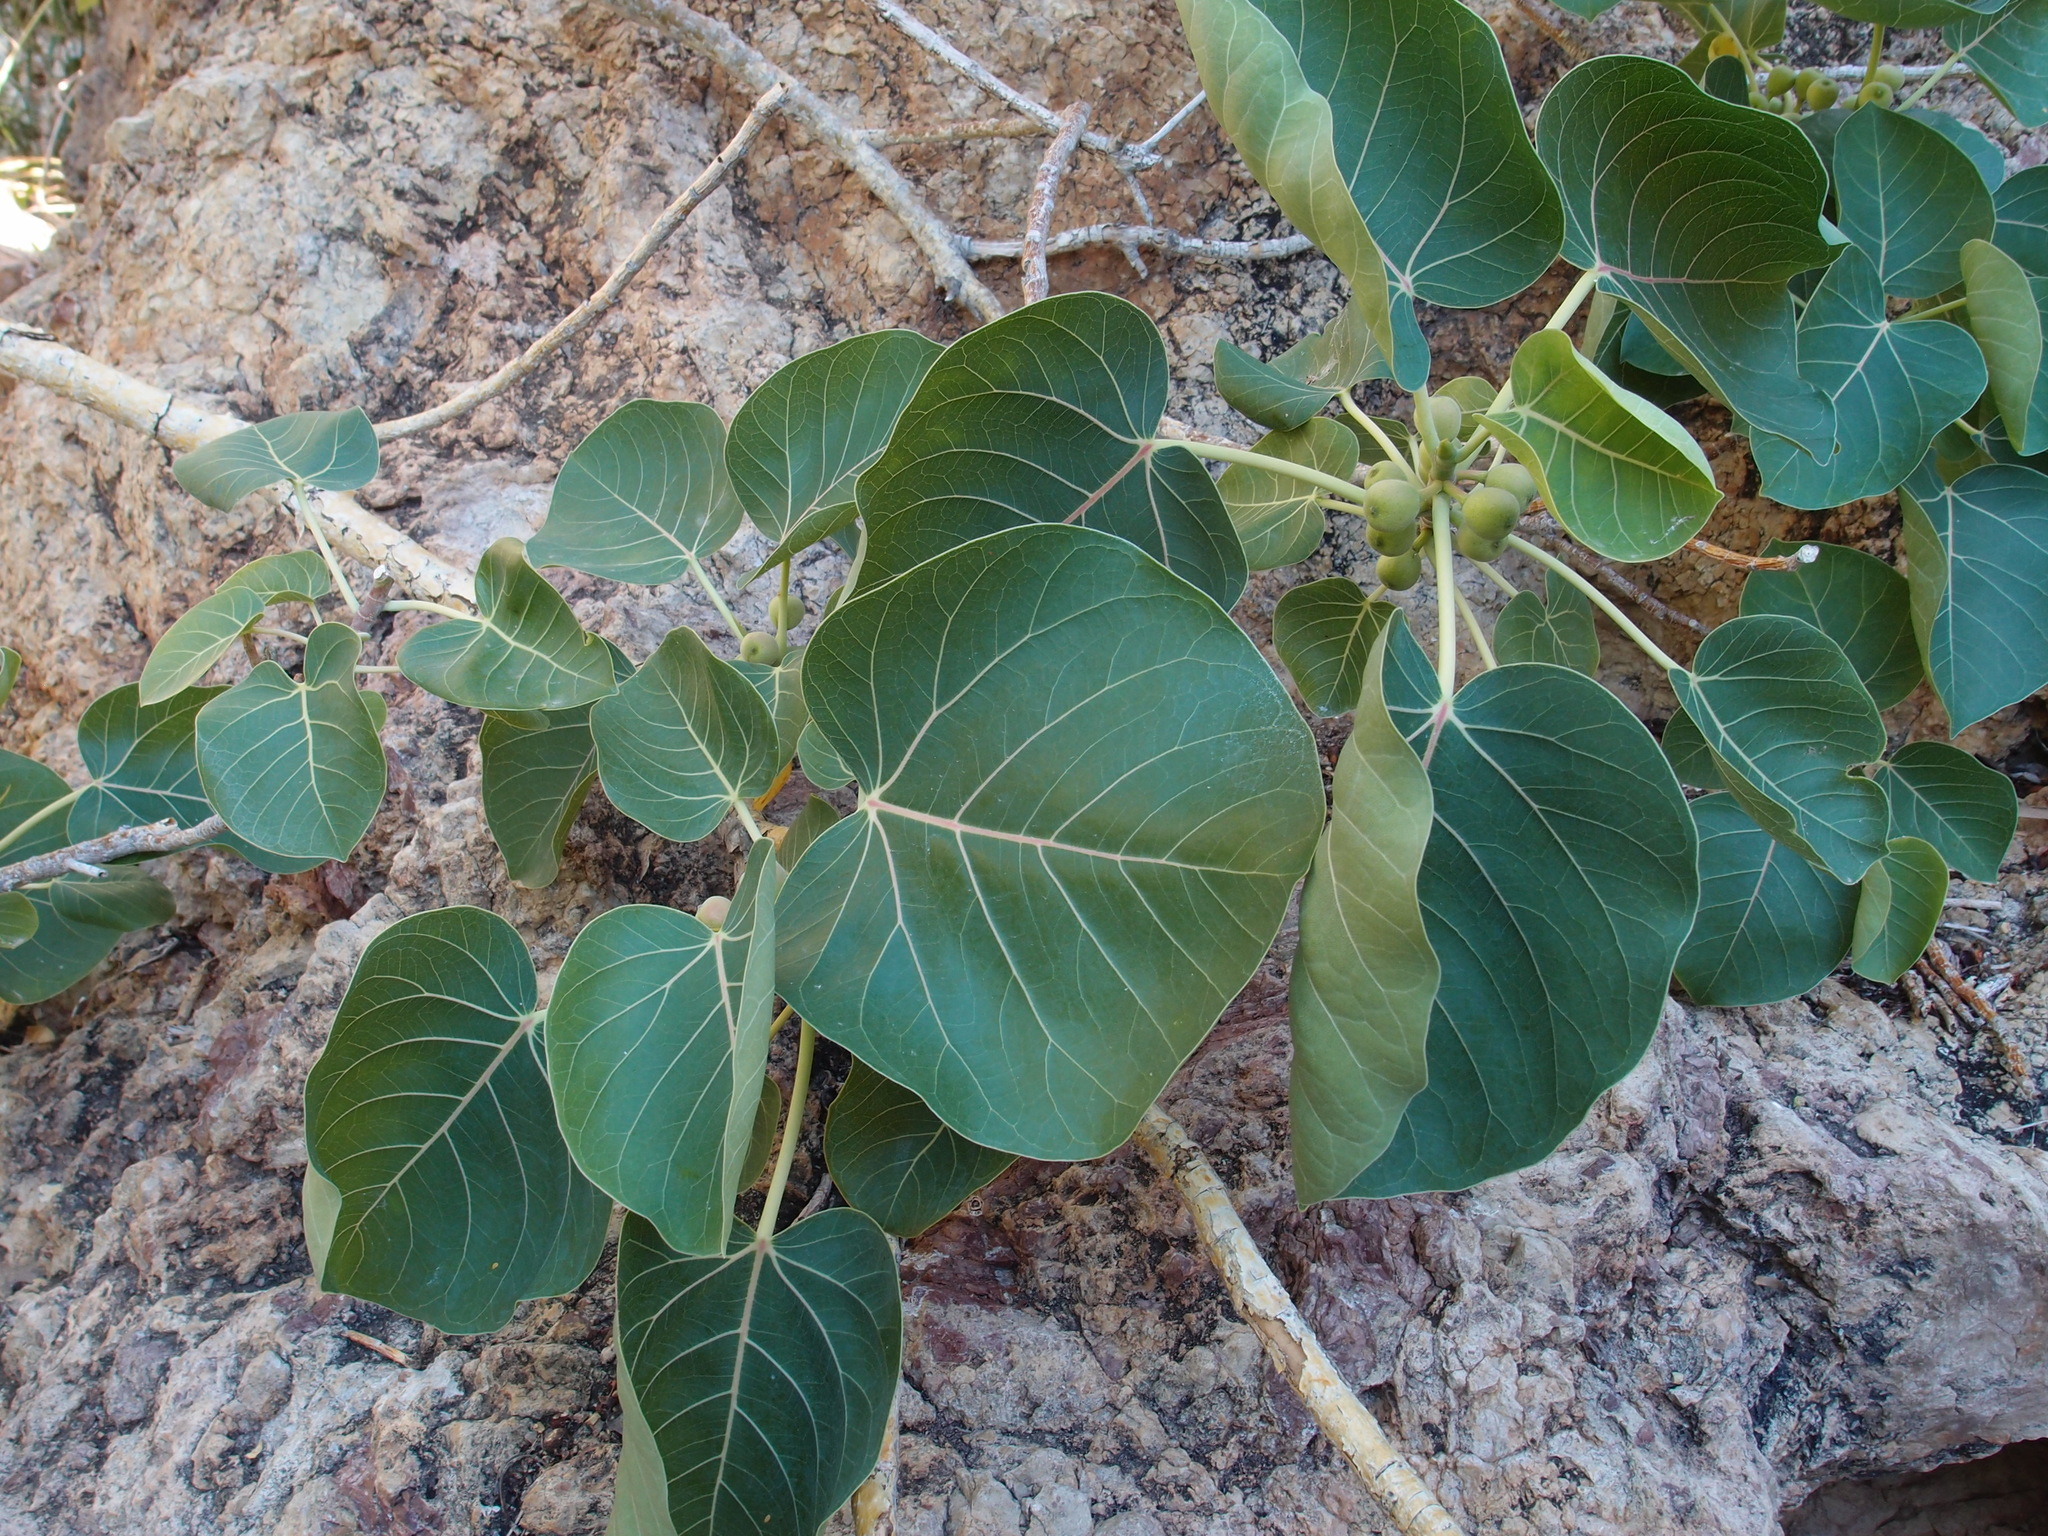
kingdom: Plantae
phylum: Tracheophyta
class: Magnoliopsida
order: Rosales
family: Moraceae
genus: Ficus
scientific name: Ficus petiolaris
